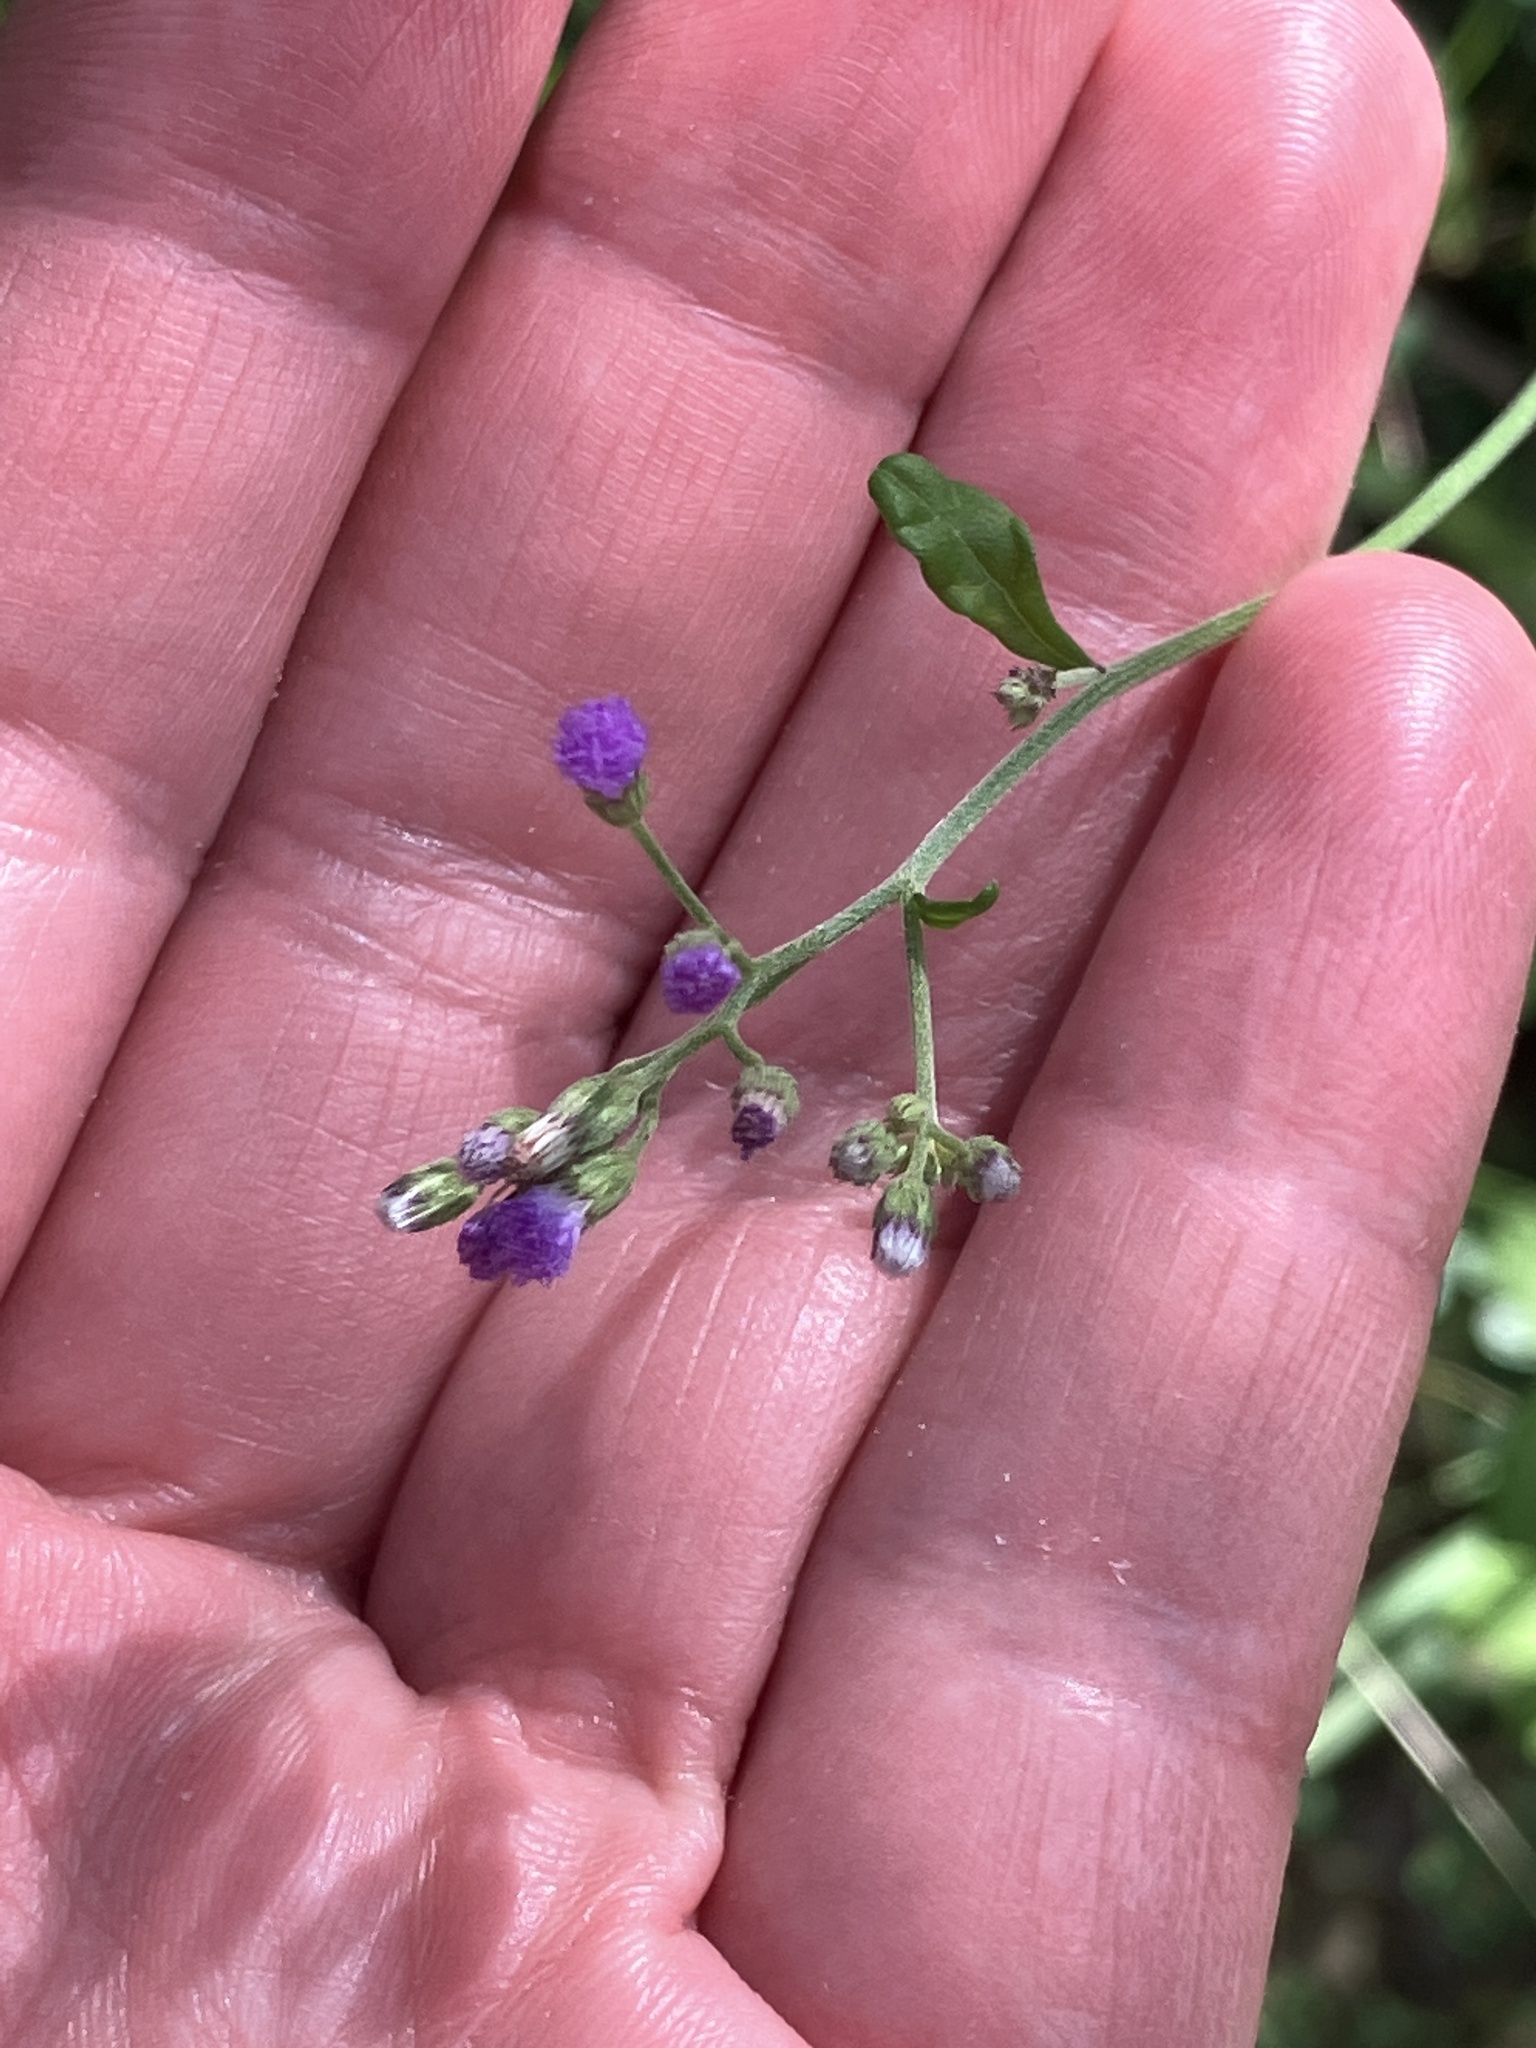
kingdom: Plantae
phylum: Tracheophyta
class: Magnoliopsida
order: Asterales
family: Asteraceae
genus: Cyanthillium
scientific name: Cyanthillium cinereum
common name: Little ironweed
